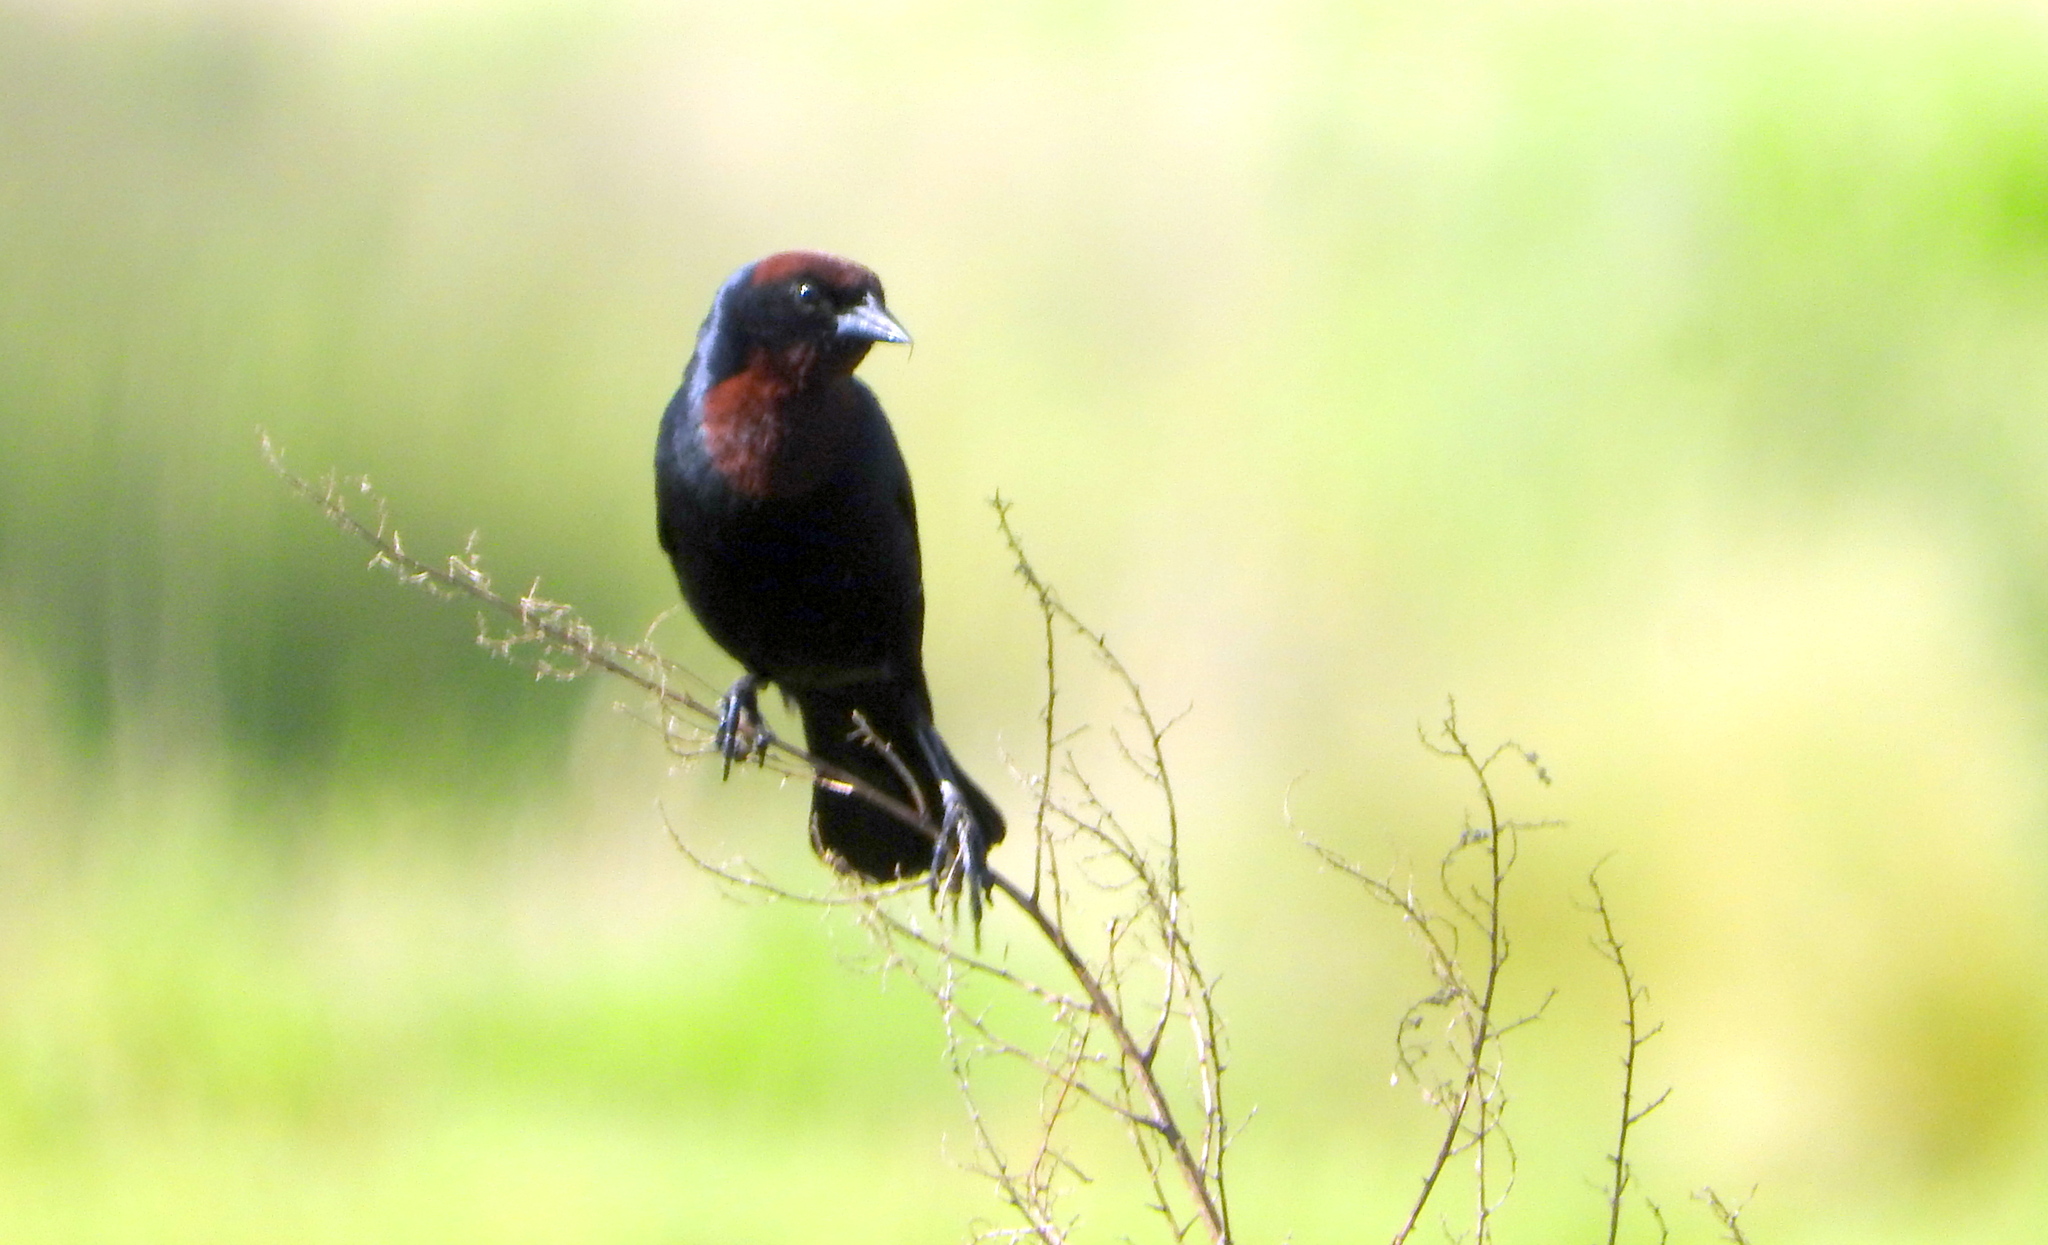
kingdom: Animalia
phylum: Chordata
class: Aves
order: Passeriformes
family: Icteridae
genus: Chrysomus
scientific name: Chrysomus ruficapillus
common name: Chestnut-capped blackbird
